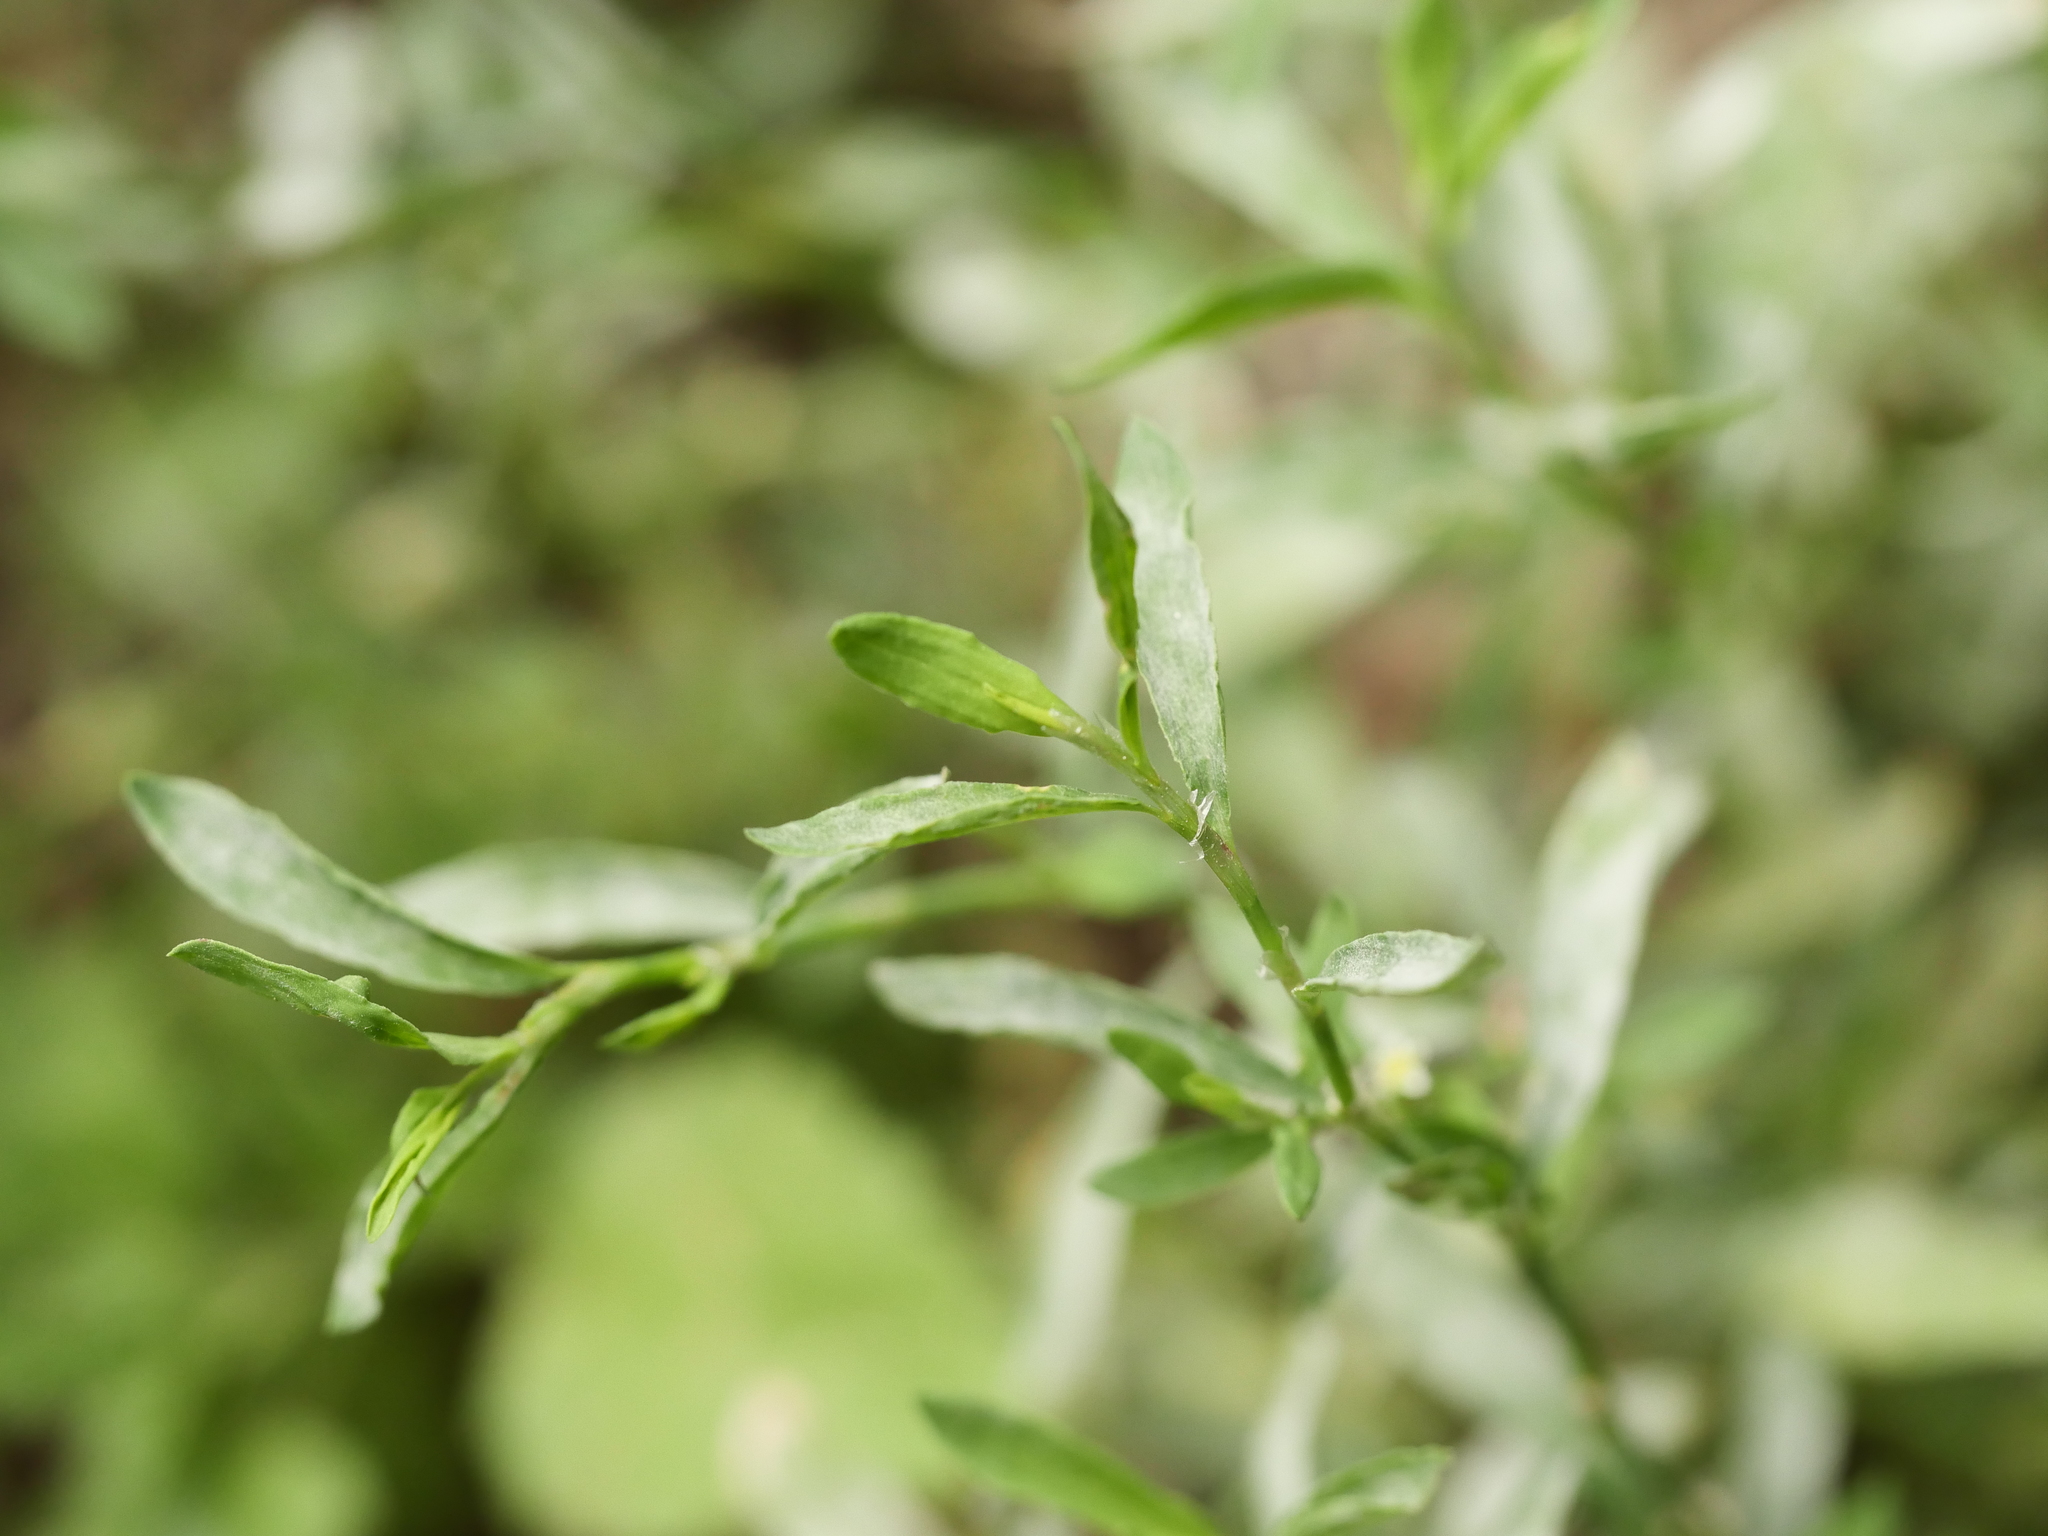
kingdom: Fungi
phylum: Ascomycota
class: Leotiomycetes
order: Helotiales
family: Erysiphaceae
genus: Erysiphe
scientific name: Erysiphe polygoni
